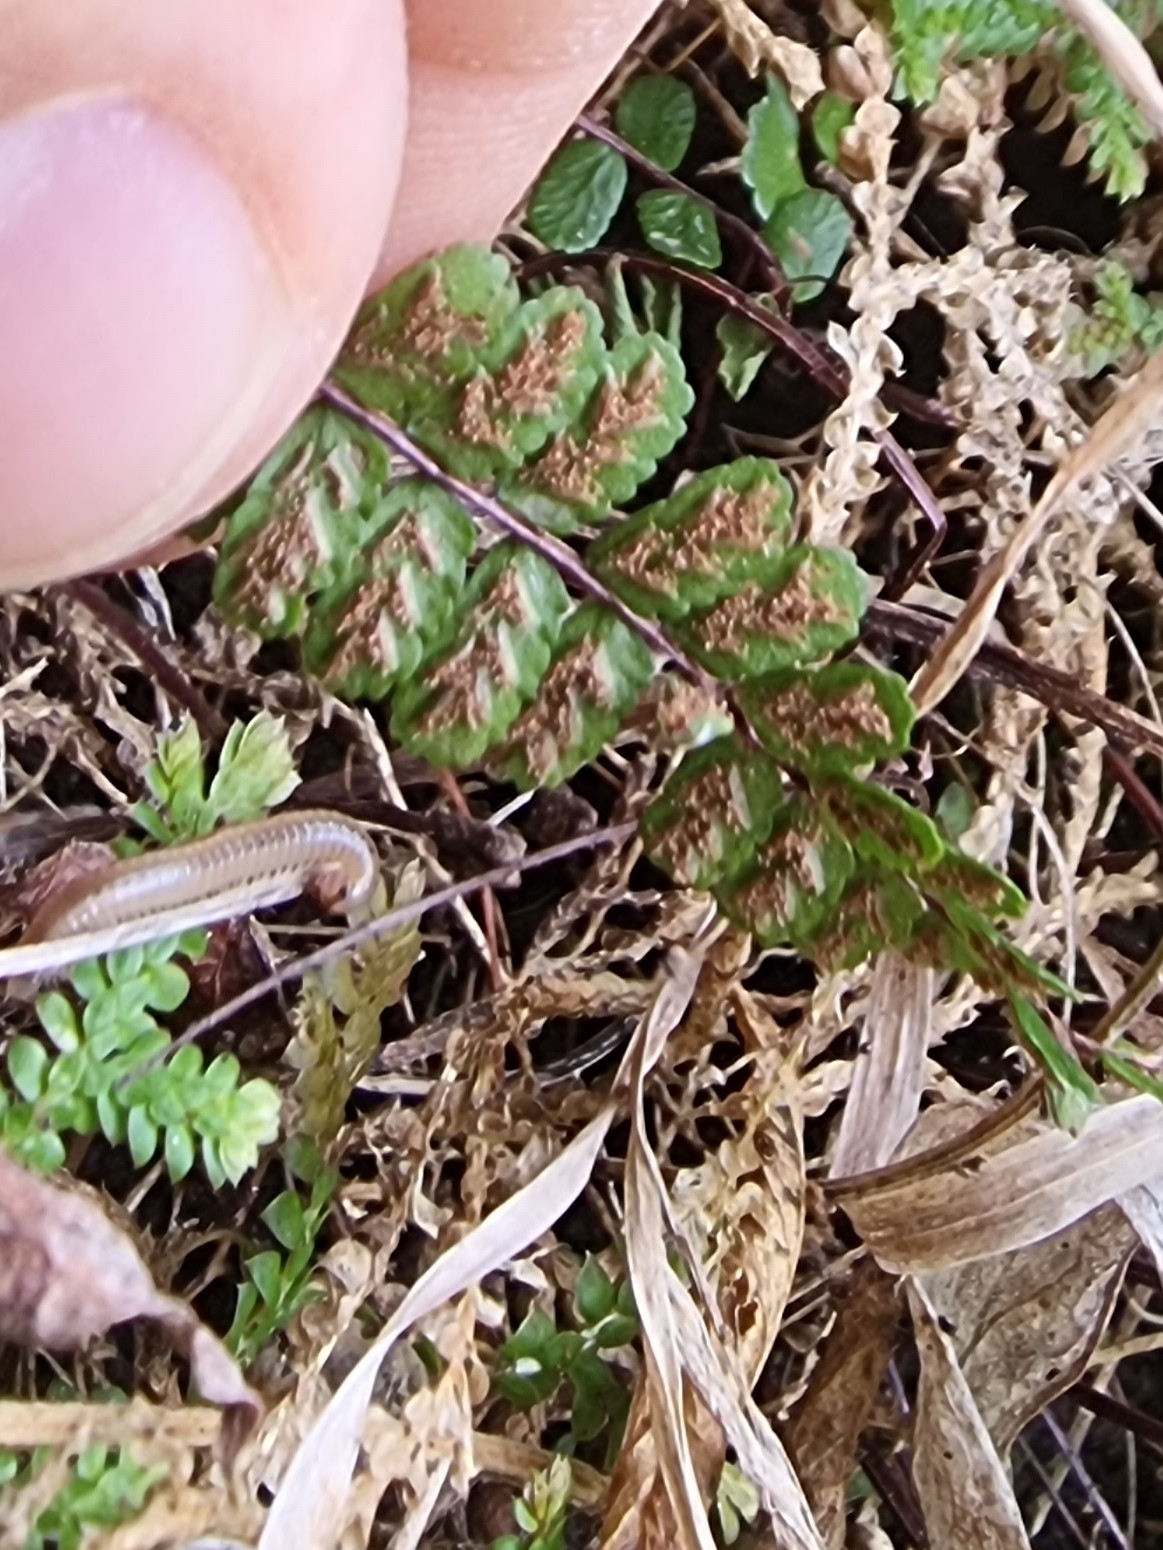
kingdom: Plantae
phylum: Tracheophyta
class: Polypodiopsida
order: Polypodiales
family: Aspleniaceae
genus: Asplenium
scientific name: Asplenium trichomanes
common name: Maidenhair spleenwort
